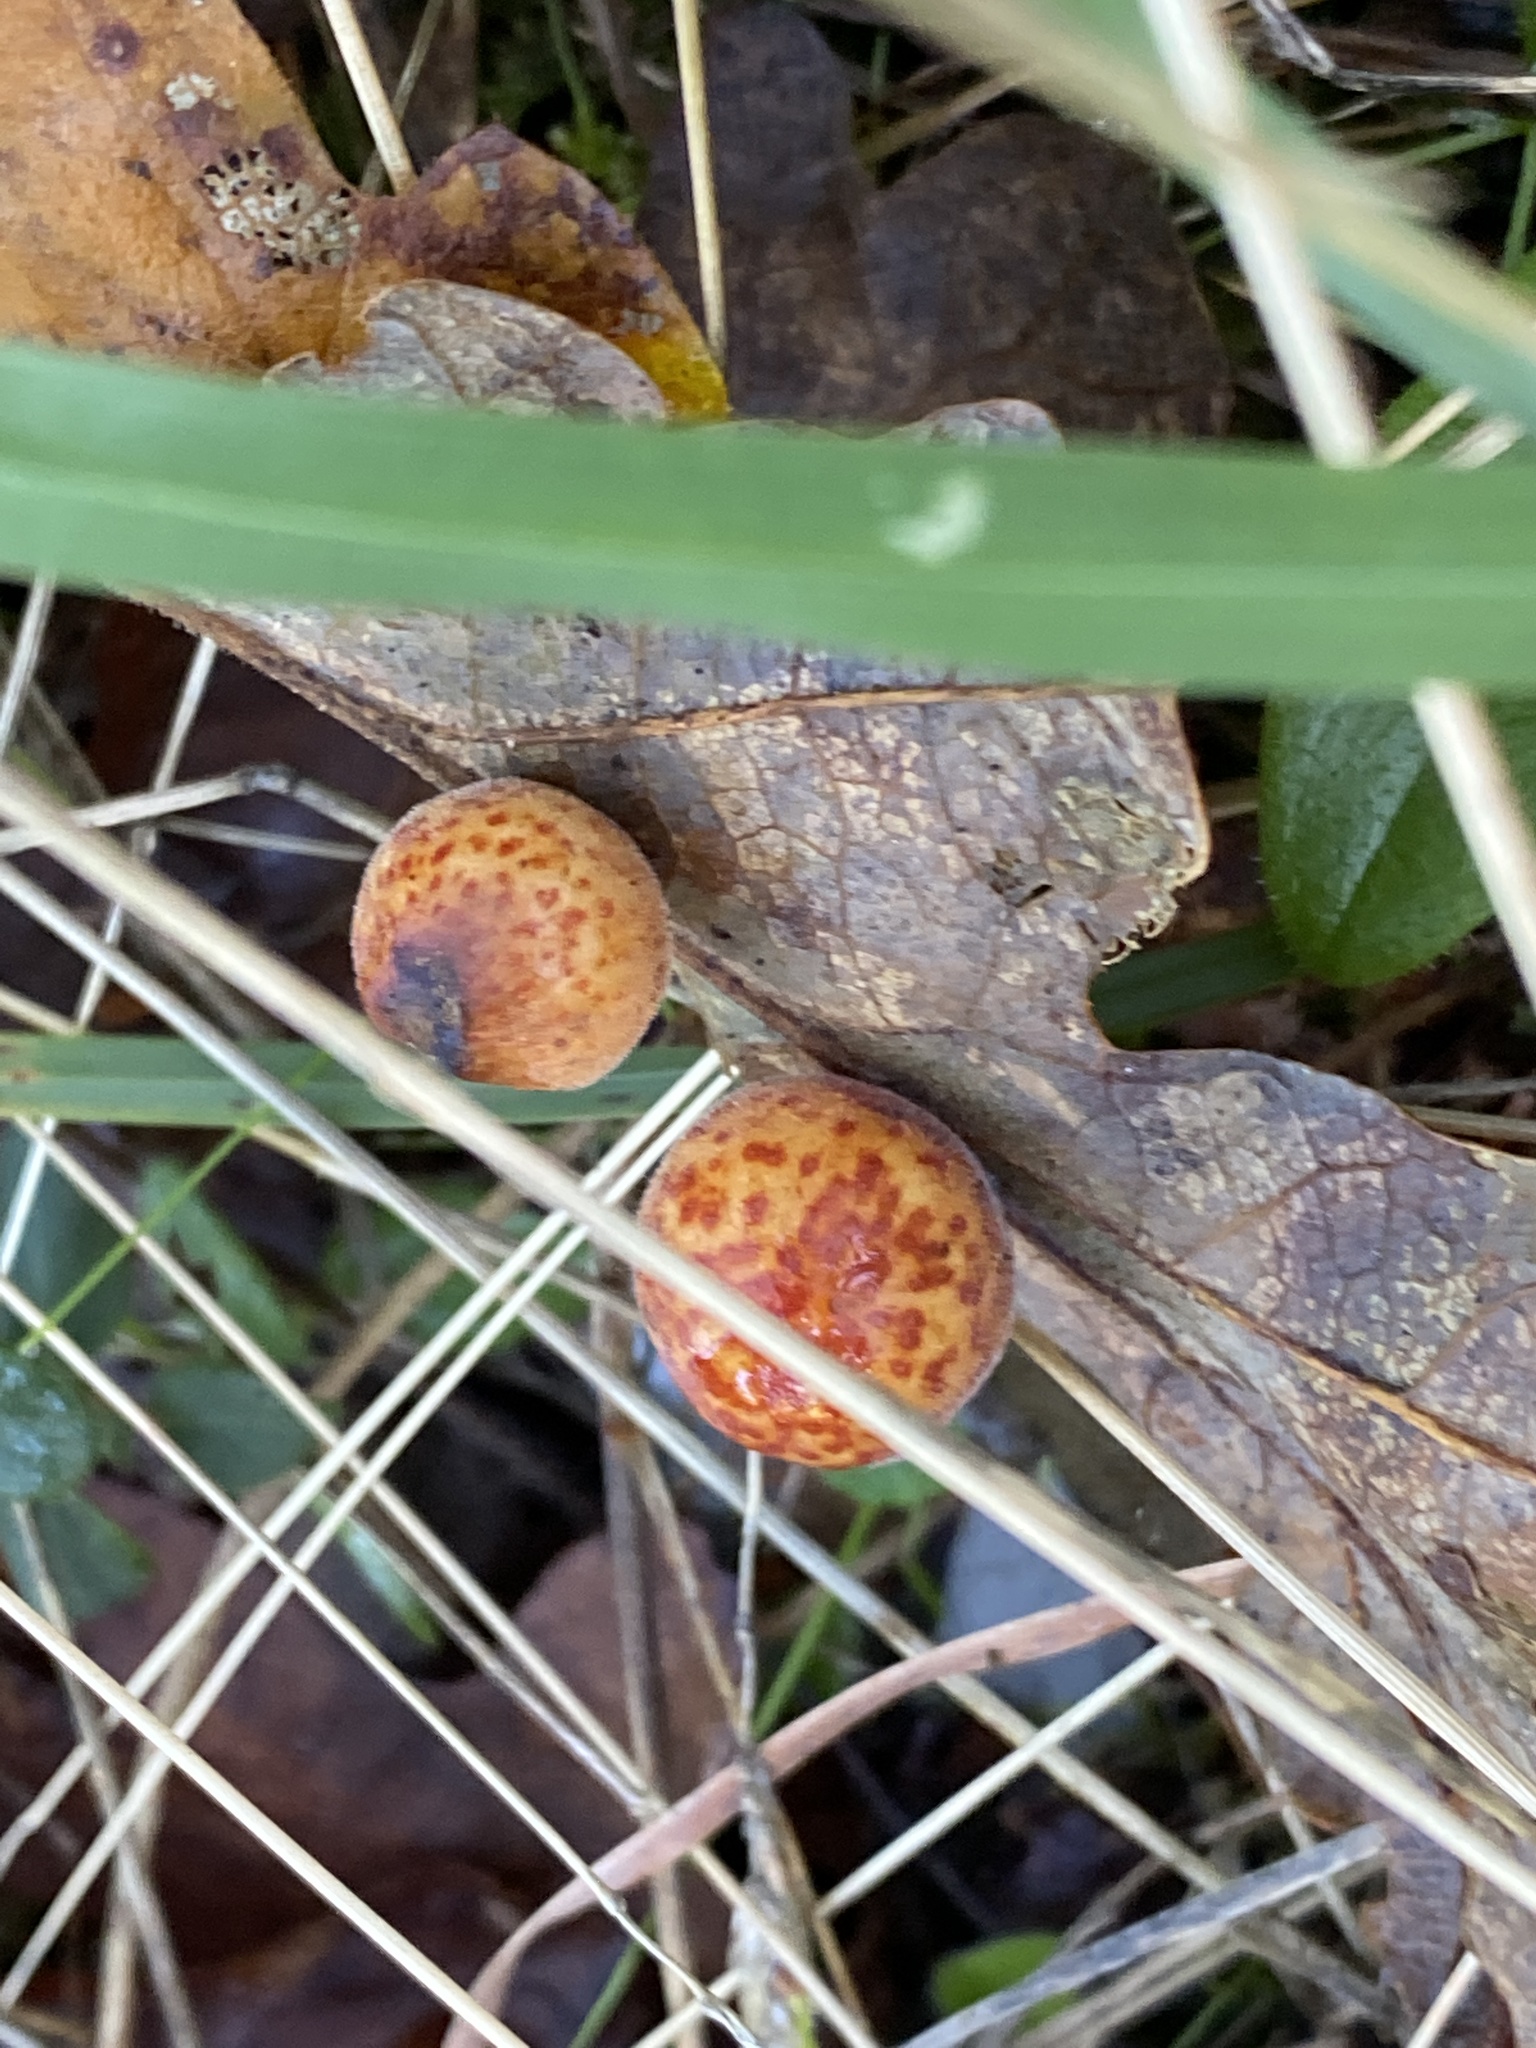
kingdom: Animalia
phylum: Arthropoda
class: Insecta
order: Hymenoptera
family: Cynipidae
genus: Cynips
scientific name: Cynips
